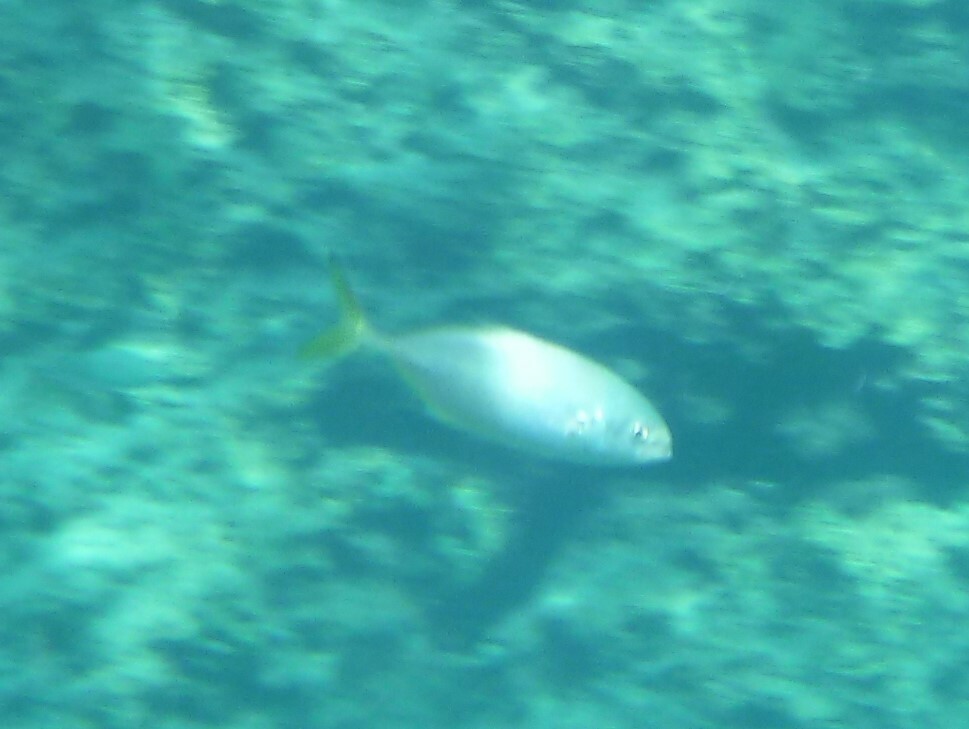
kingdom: Animalia
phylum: Chordata
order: Perciformes
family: Carangidae
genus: Caranx
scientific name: Caranx crysos
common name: Blue runner
